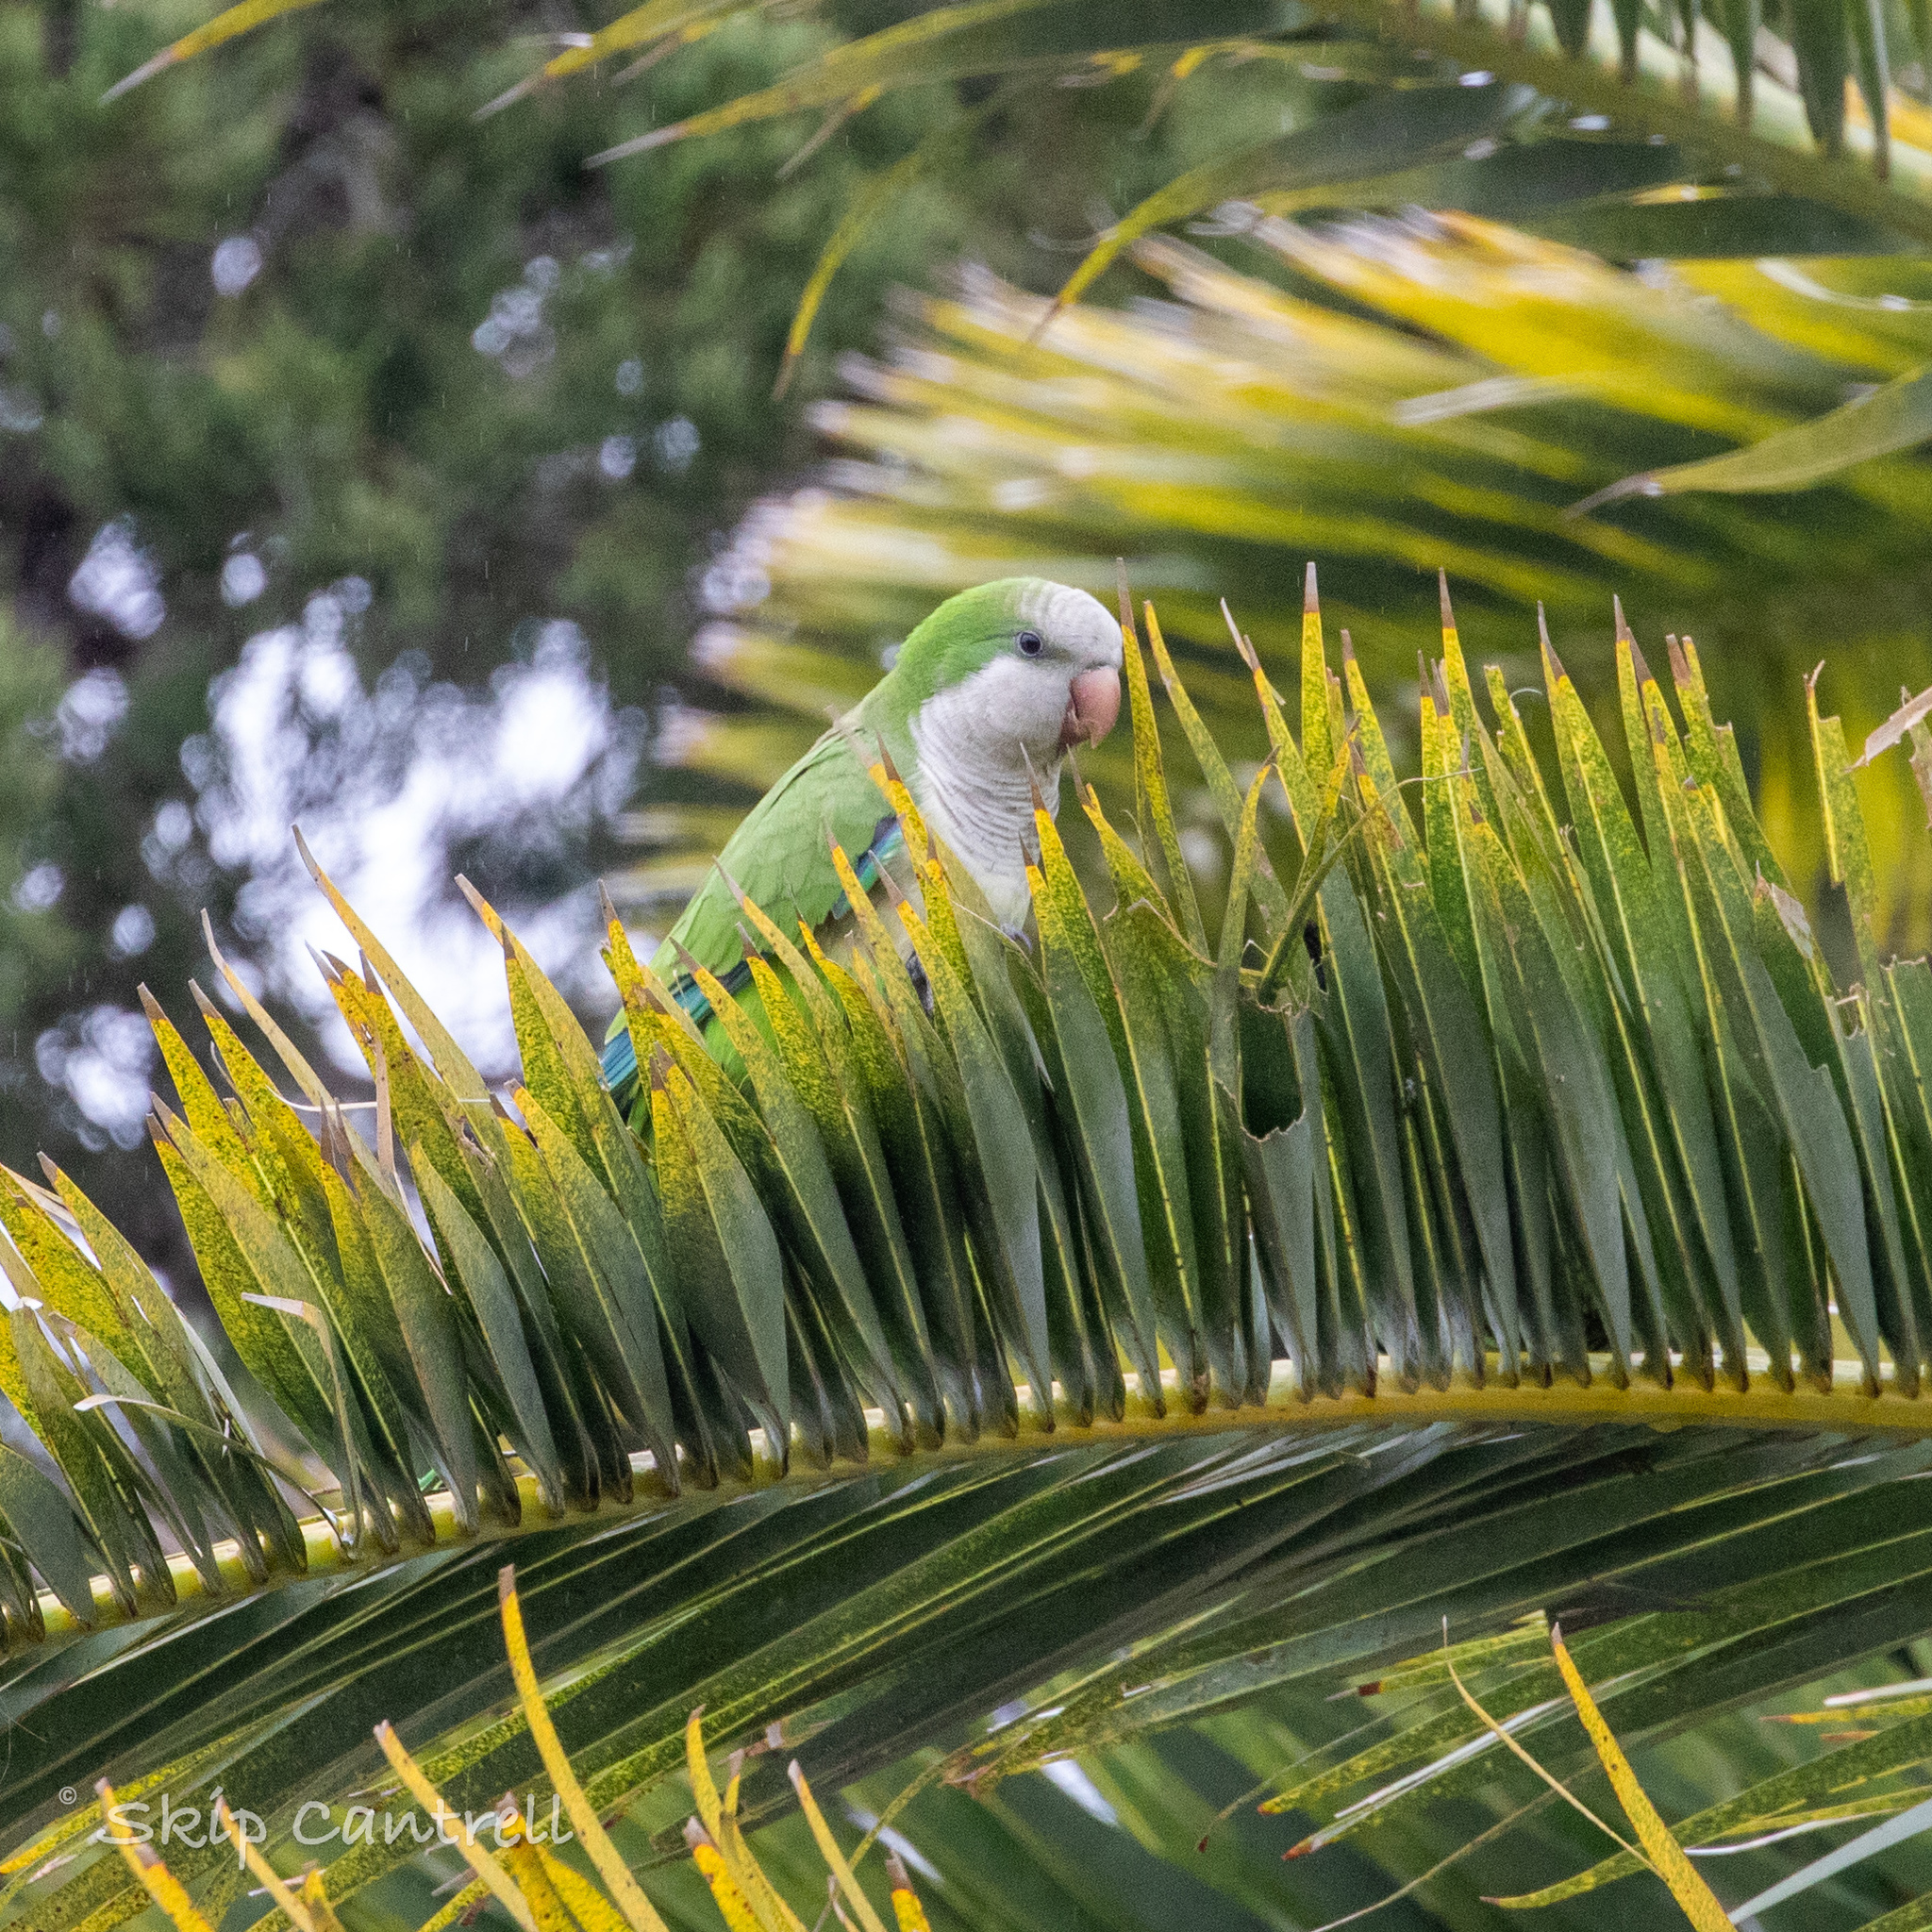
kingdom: Animalia
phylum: Chordata
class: Aves
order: Psittaciformes
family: Psittacidae
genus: Myiopsitta
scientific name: Myiopsitta monachus
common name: Monk parakeet
